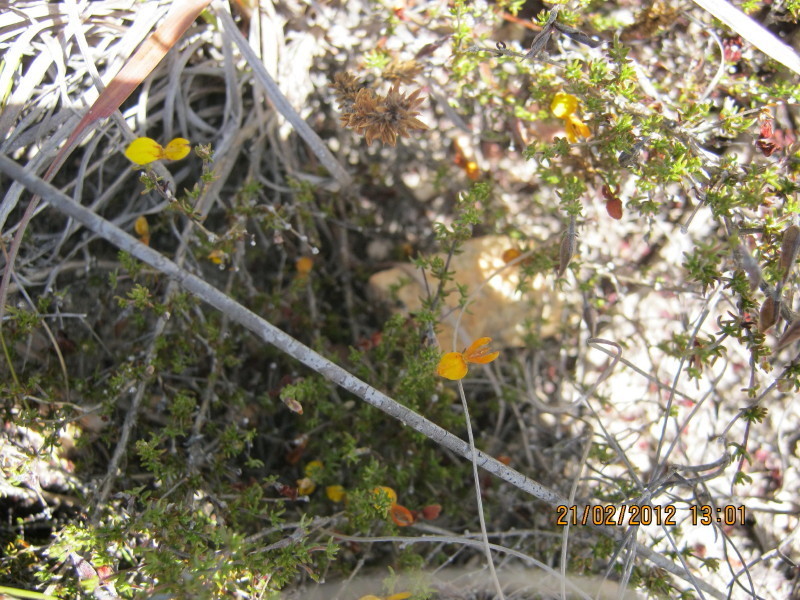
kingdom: Plantae
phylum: Tracheophyta
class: Magnoliopsida
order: Fabales
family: Fabaceae
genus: Aspalathus
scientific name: Aspalathus rubens
